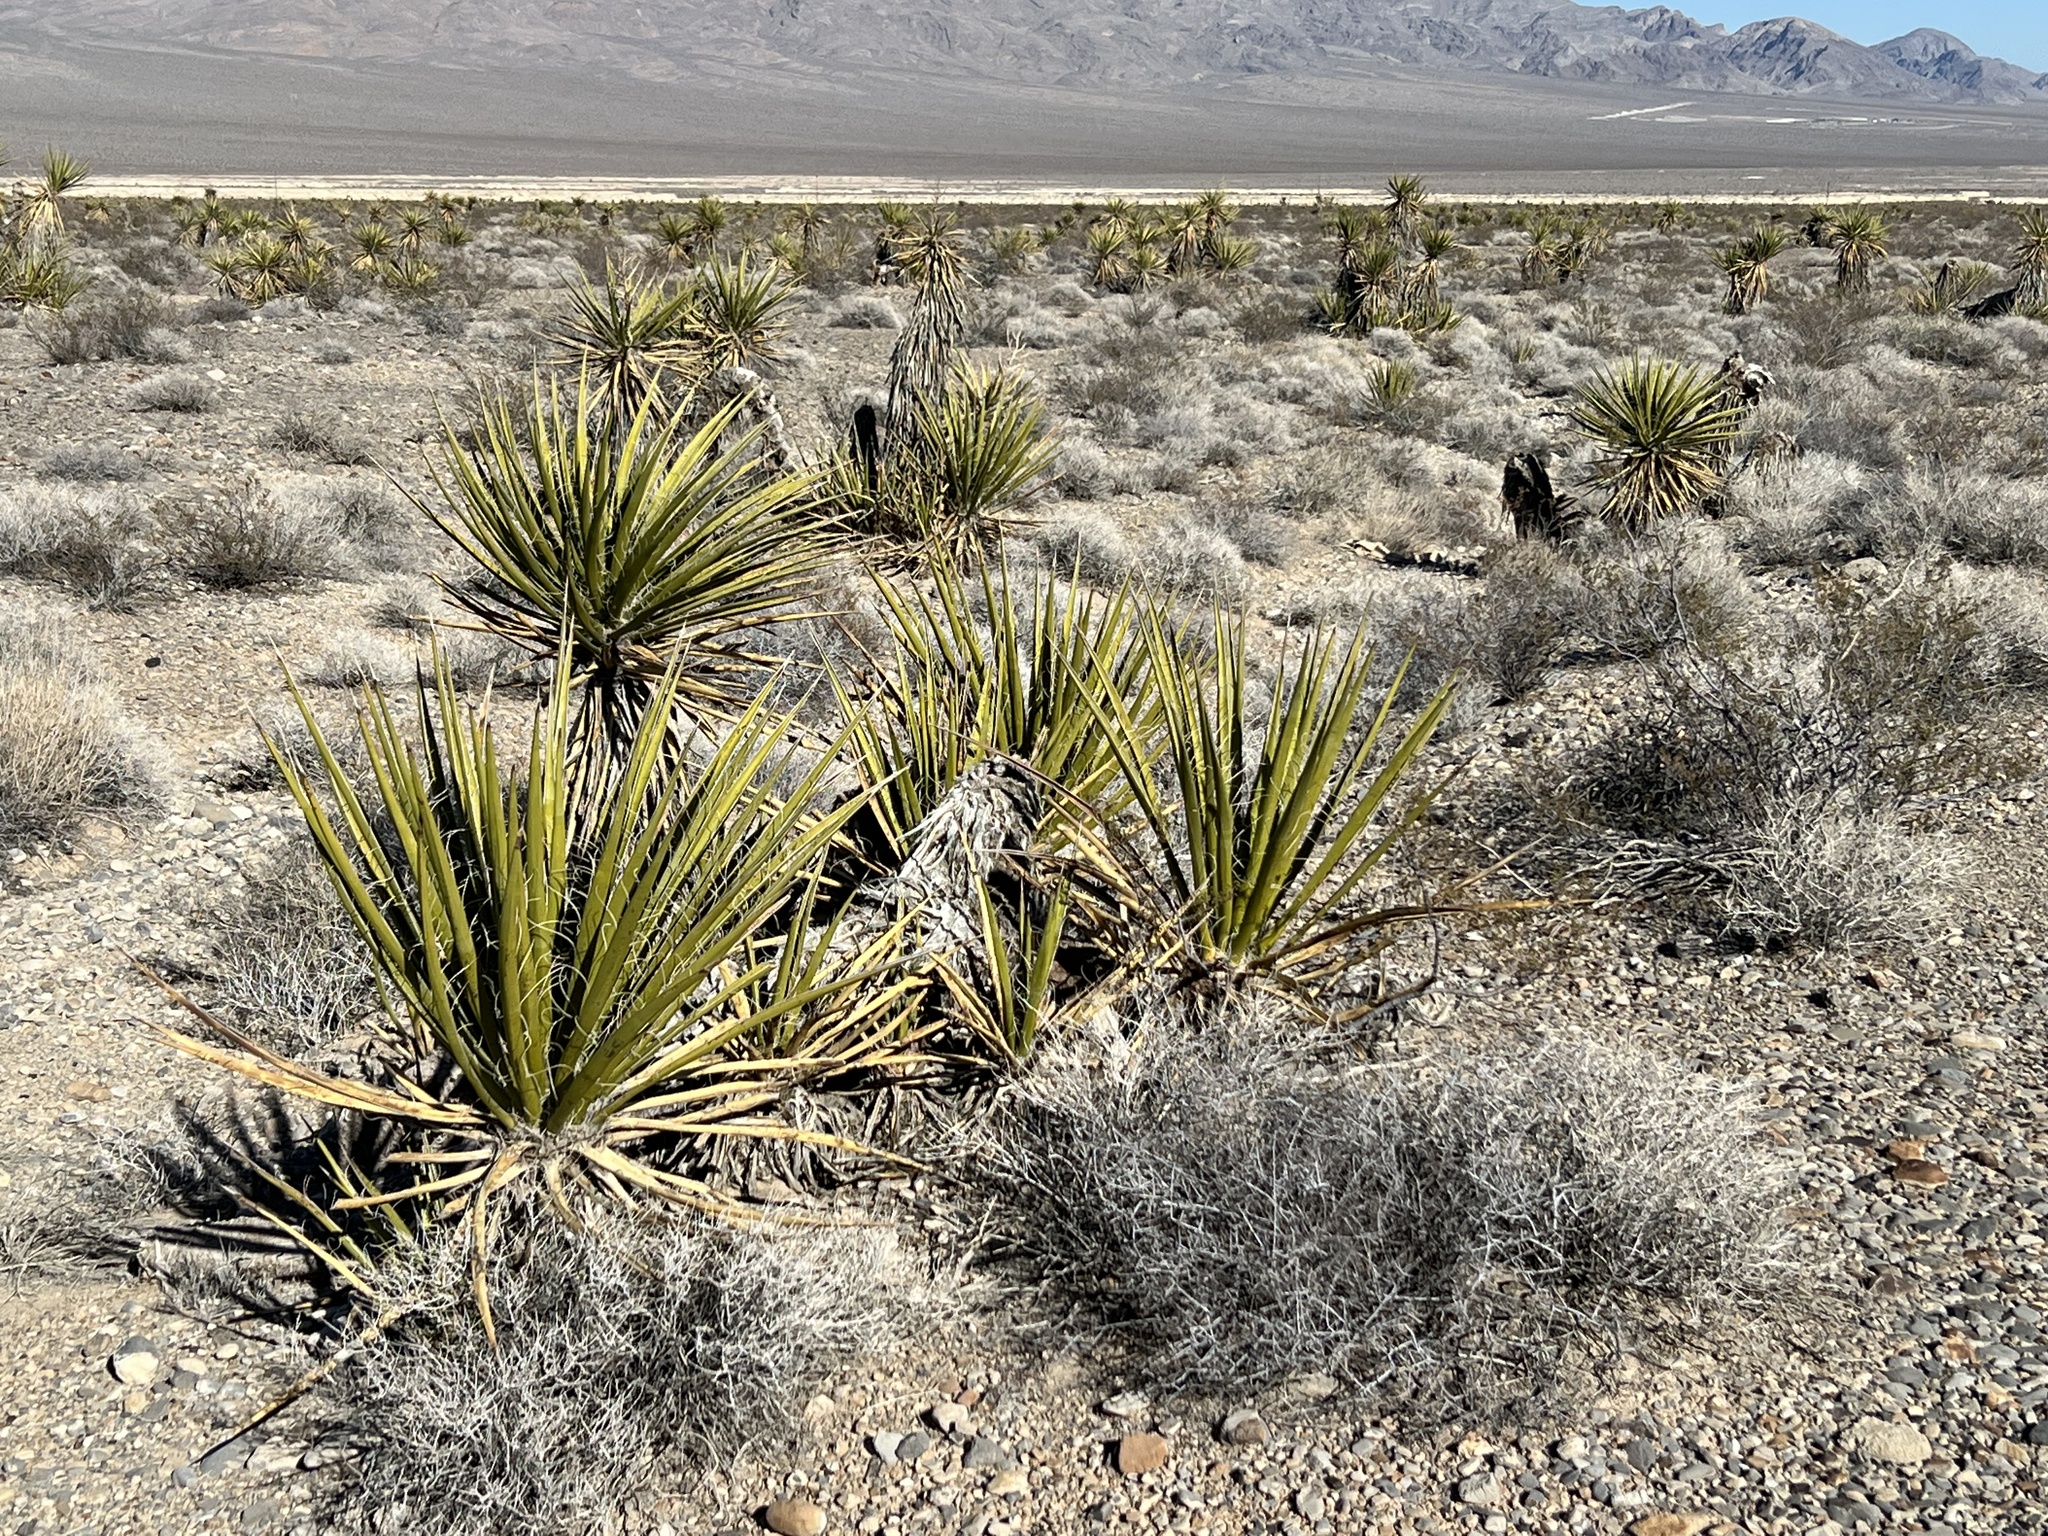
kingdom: Plantae
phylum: Tracheophyta
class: Liliopsida
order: Asparagales
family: Asparagaceae
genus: Yucca
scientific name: Yucca schidigera
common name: Mojave yucca
